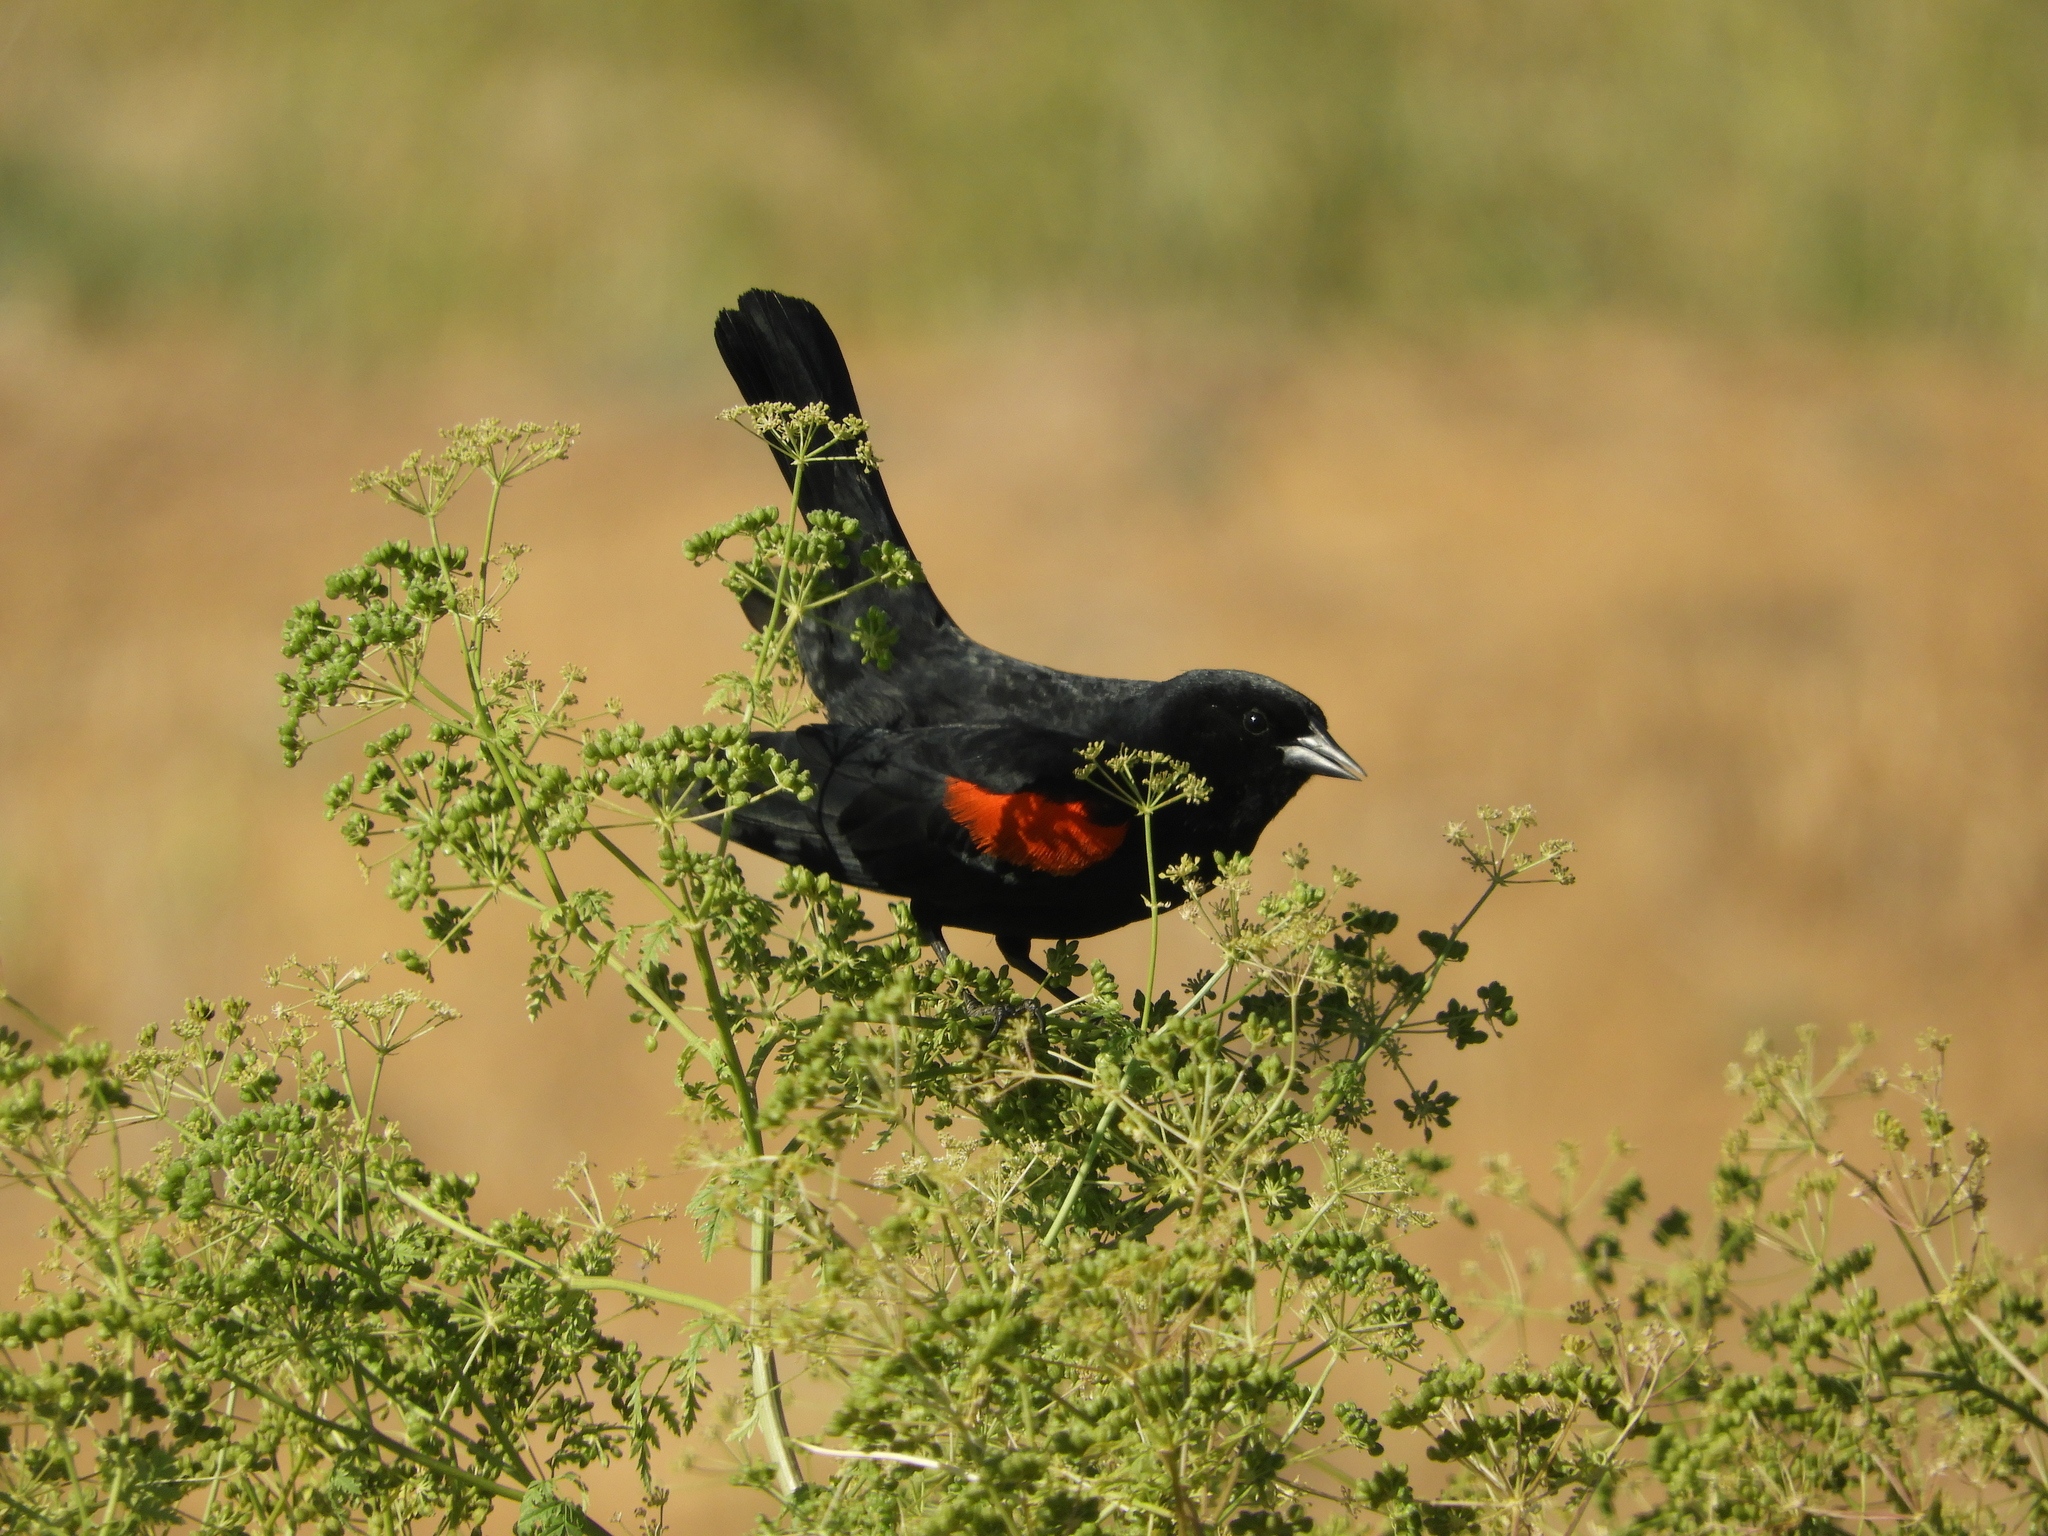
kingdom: Animalia
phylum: Chordata
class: Aves
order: Passeriformes
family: Icteridae
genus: Agelaius
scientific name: Agelaius phoeniceus
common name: Red-winged blackbird
